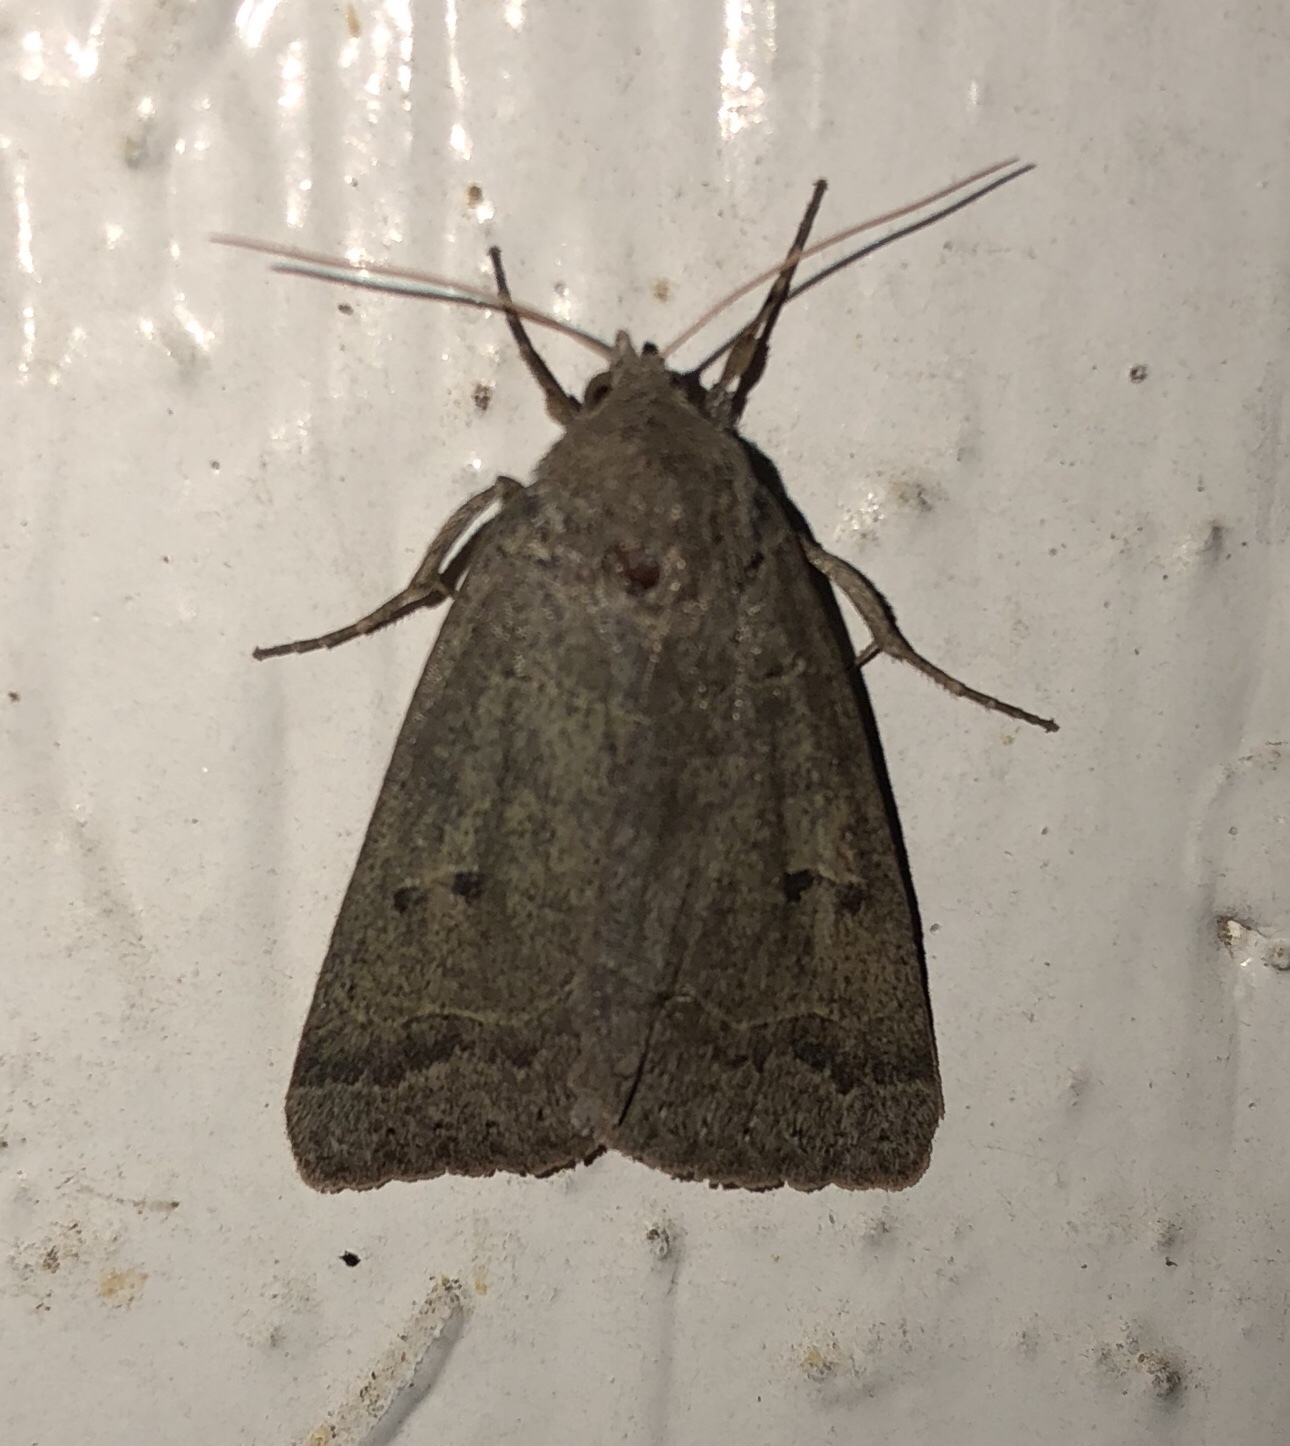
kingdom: Animalia
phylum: Arthropoda
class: Insecta
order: Lepidoptera
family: Erebidae
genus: Phoberia
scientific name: Phoberia atomaris
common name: Common oak moth
